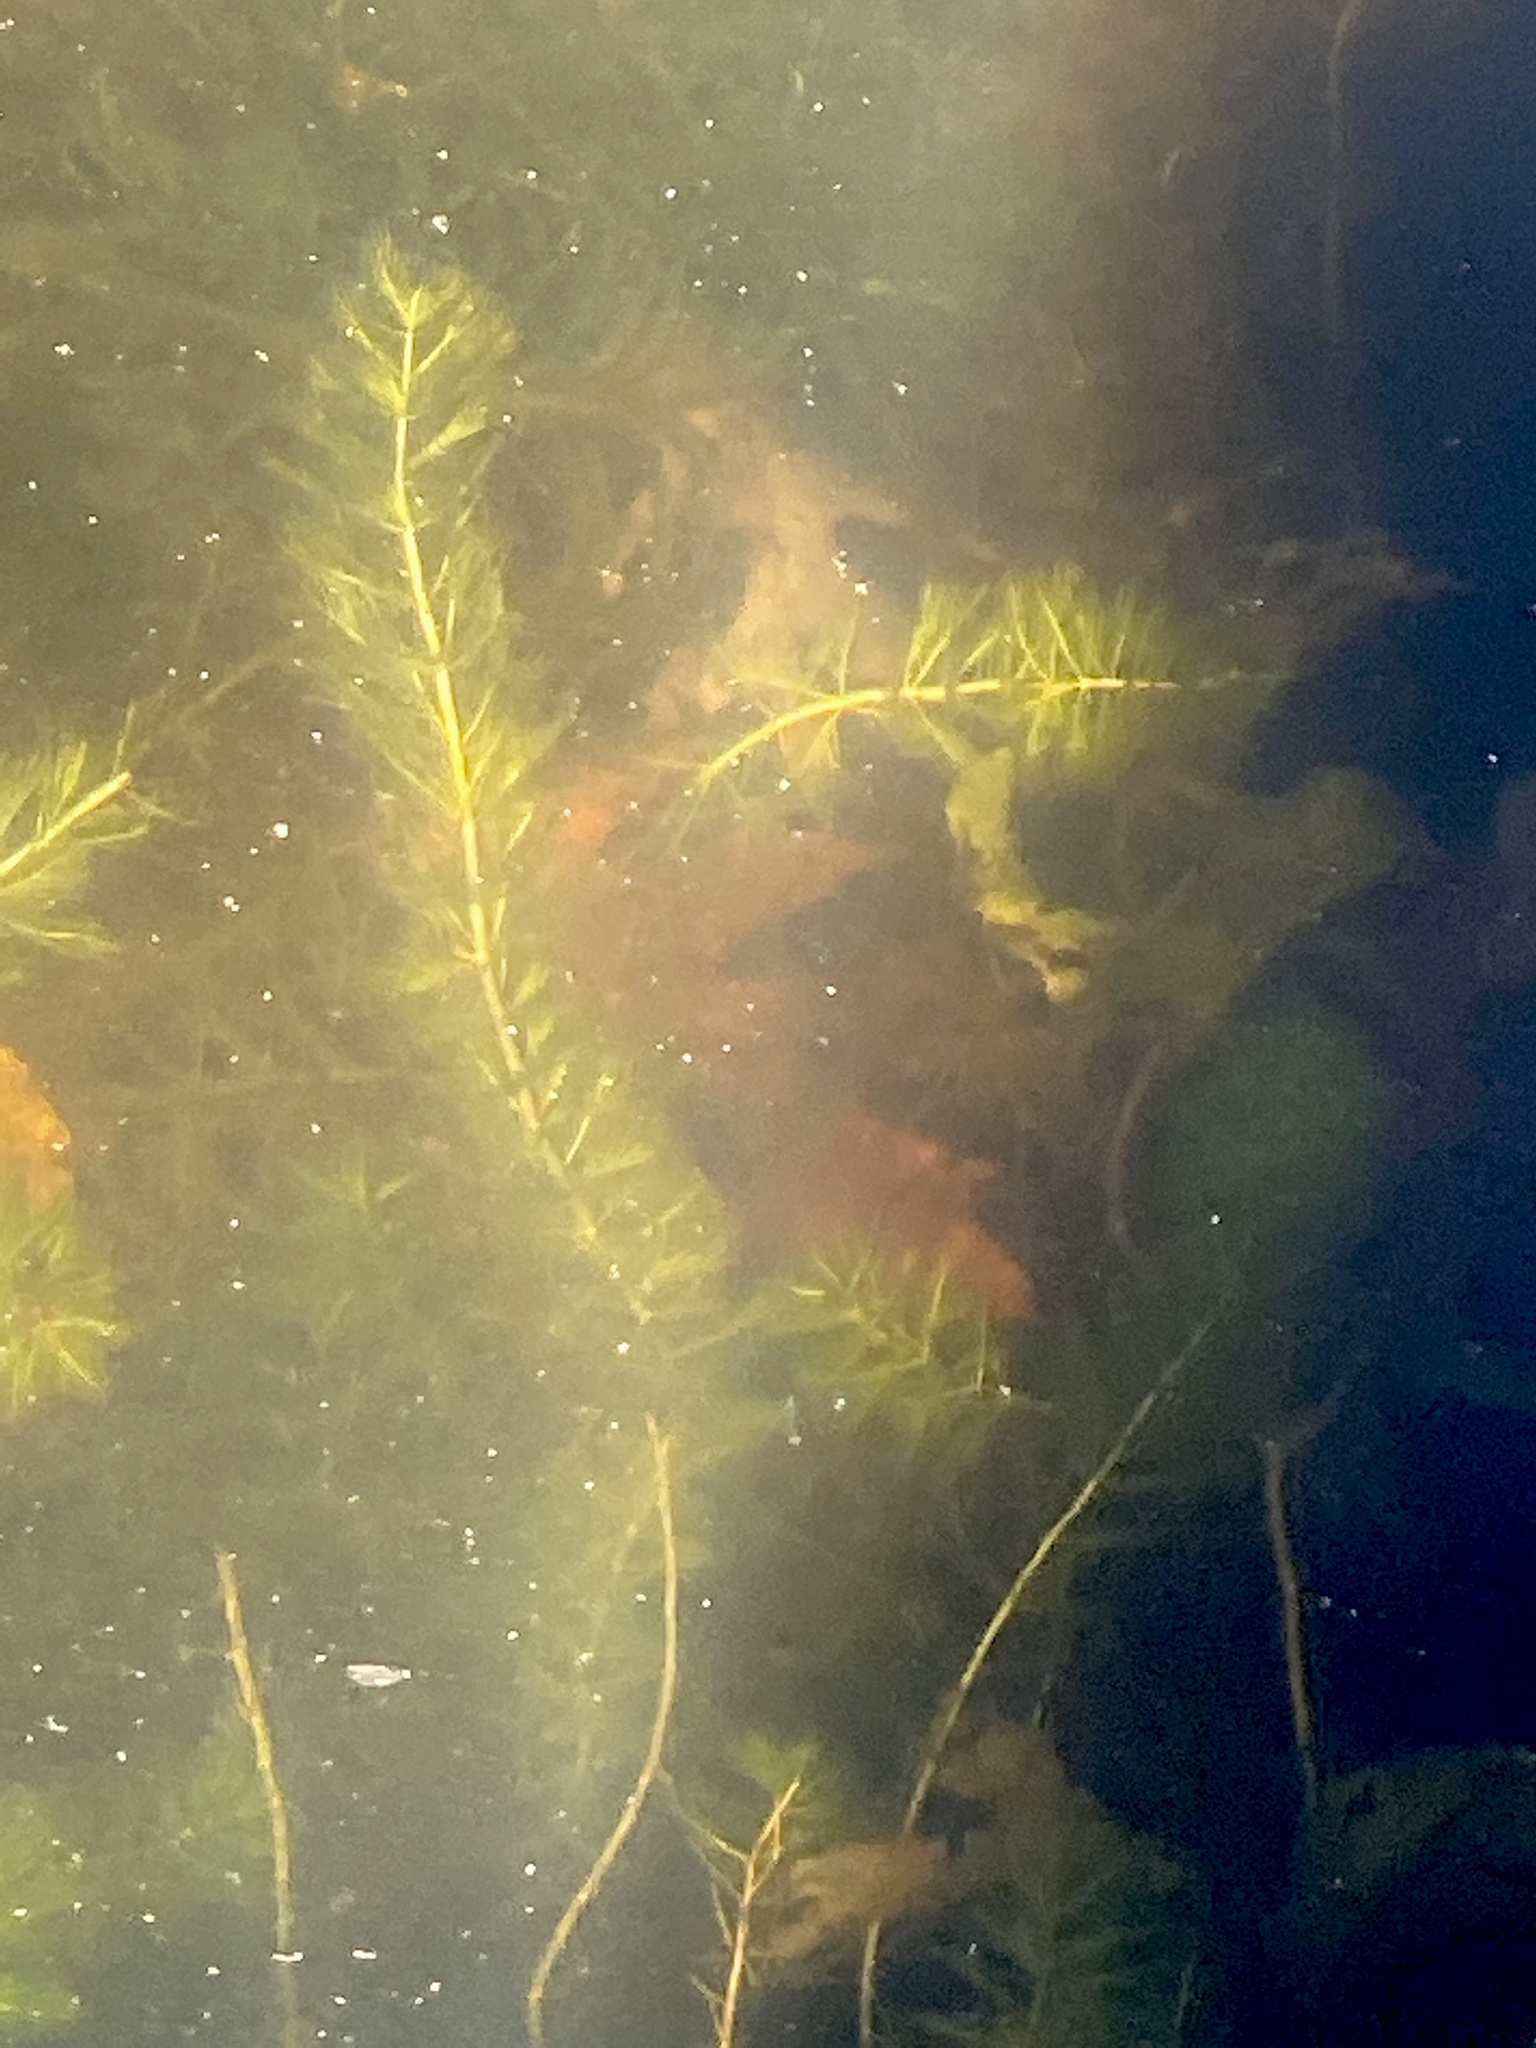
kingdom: Plantae
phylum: Tracheophyta
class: Magnoliopsida
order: Saxifragales
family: Haloragaceae
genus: Myriophyllum
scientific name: Myriophyllum spicatum
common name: Spiked water-milfoil
